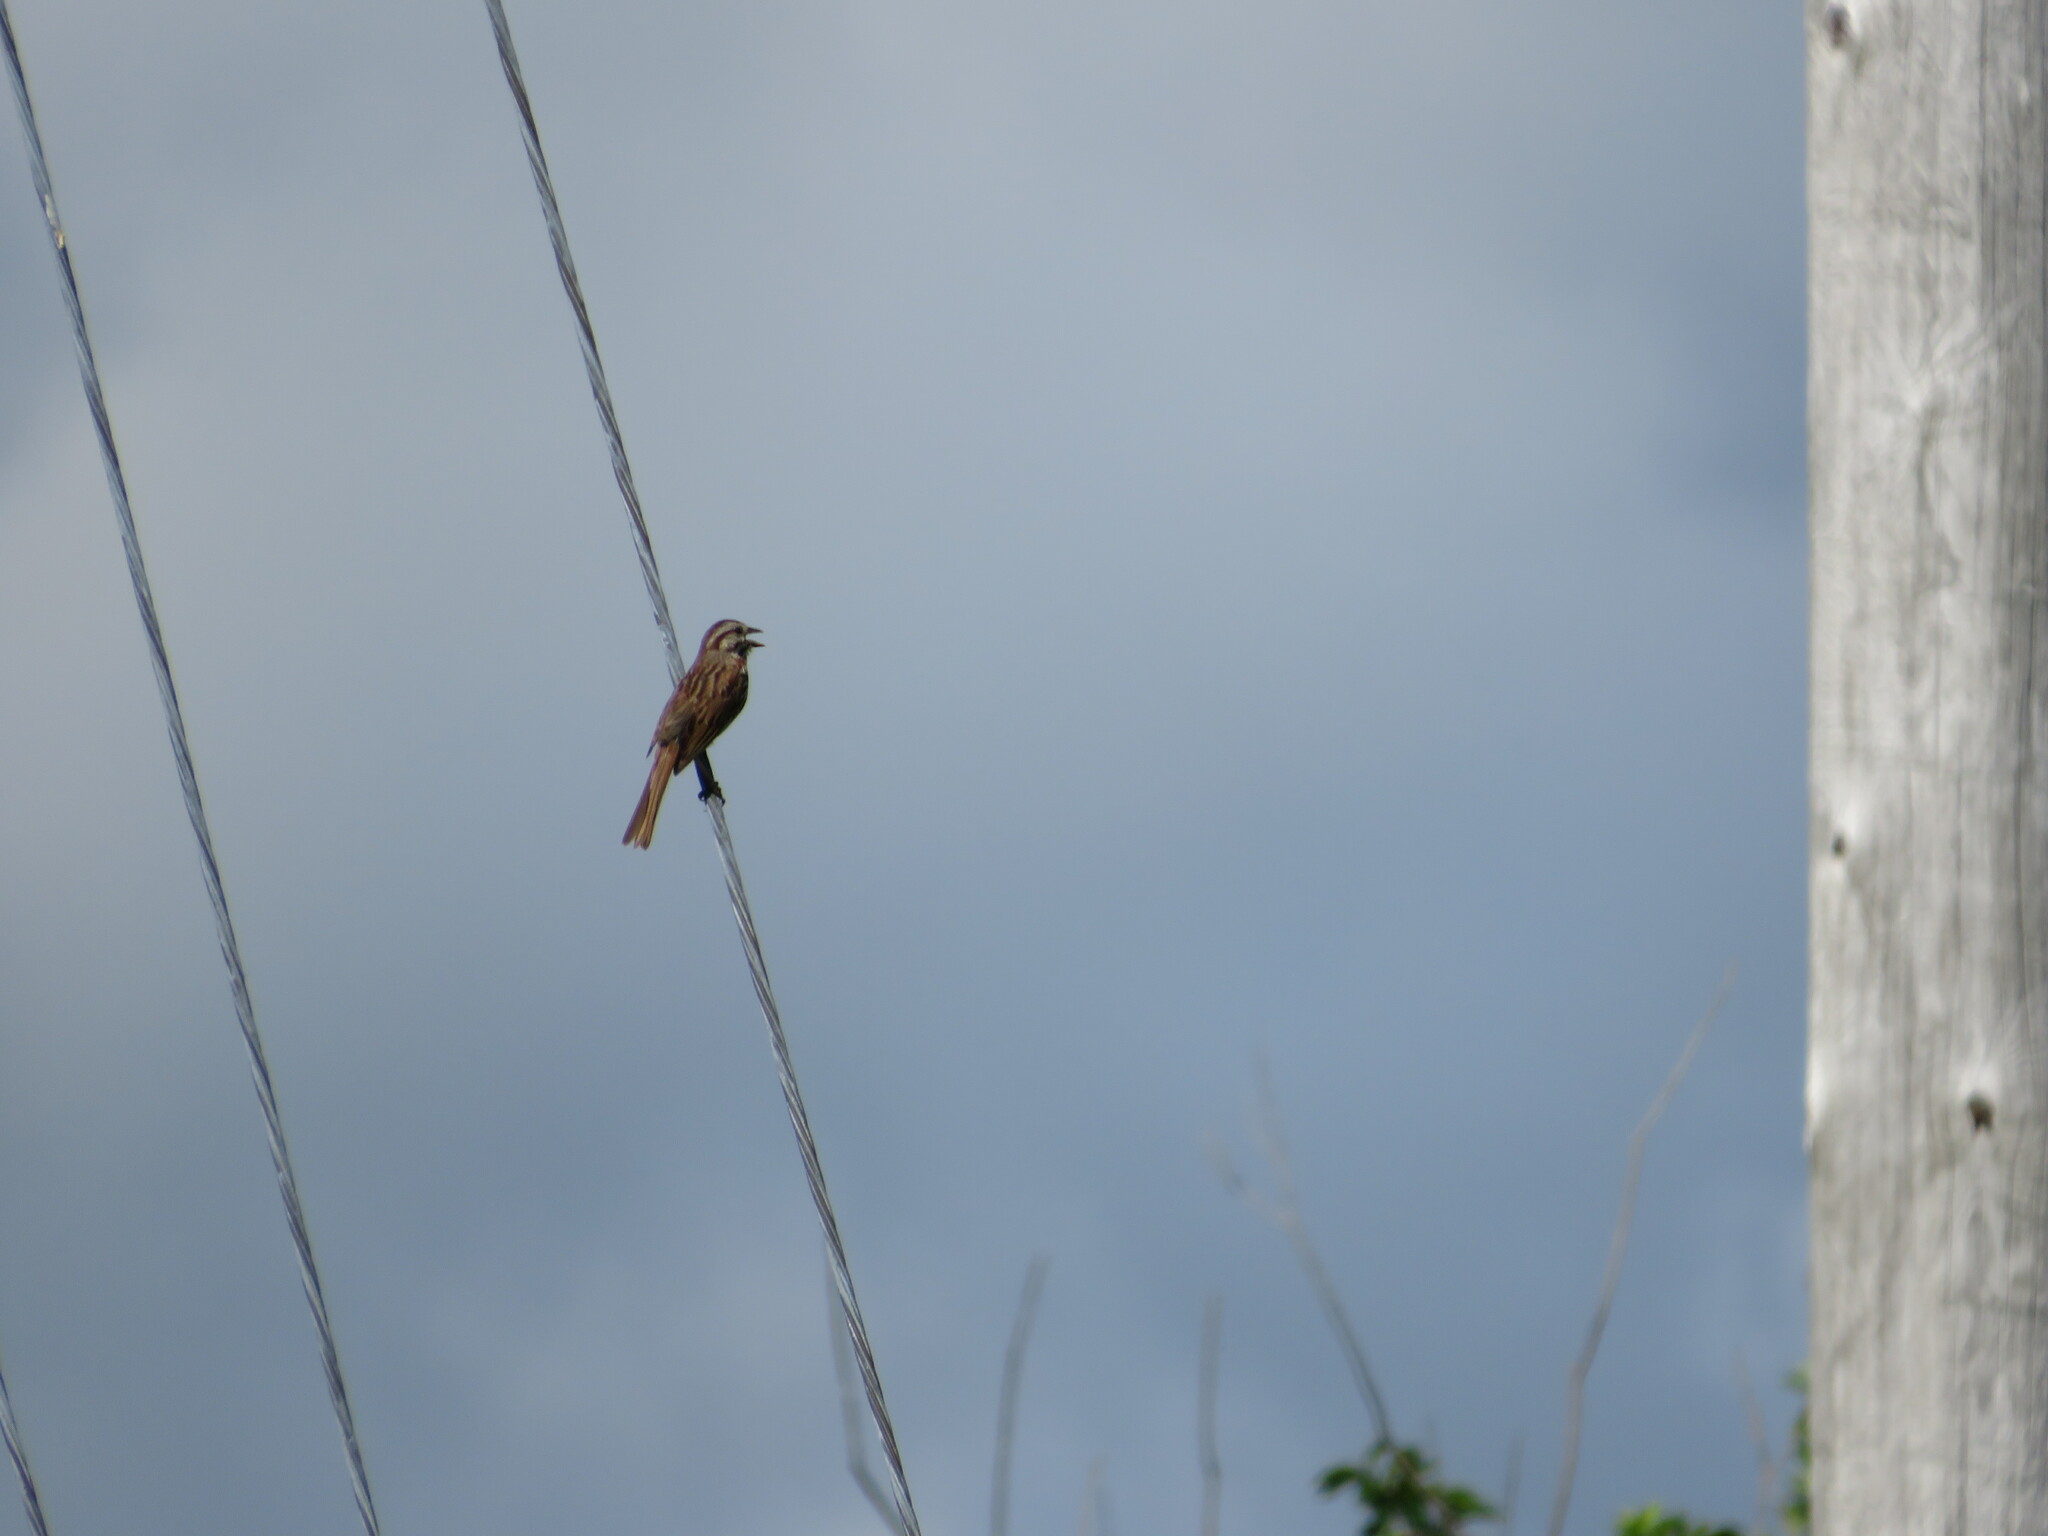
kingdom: Animalia
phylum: Chordata
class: Aves
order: Passeriformes
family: Passerellidae
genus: Melospiza
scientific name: Melospiza melodia
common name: Song sparrow
